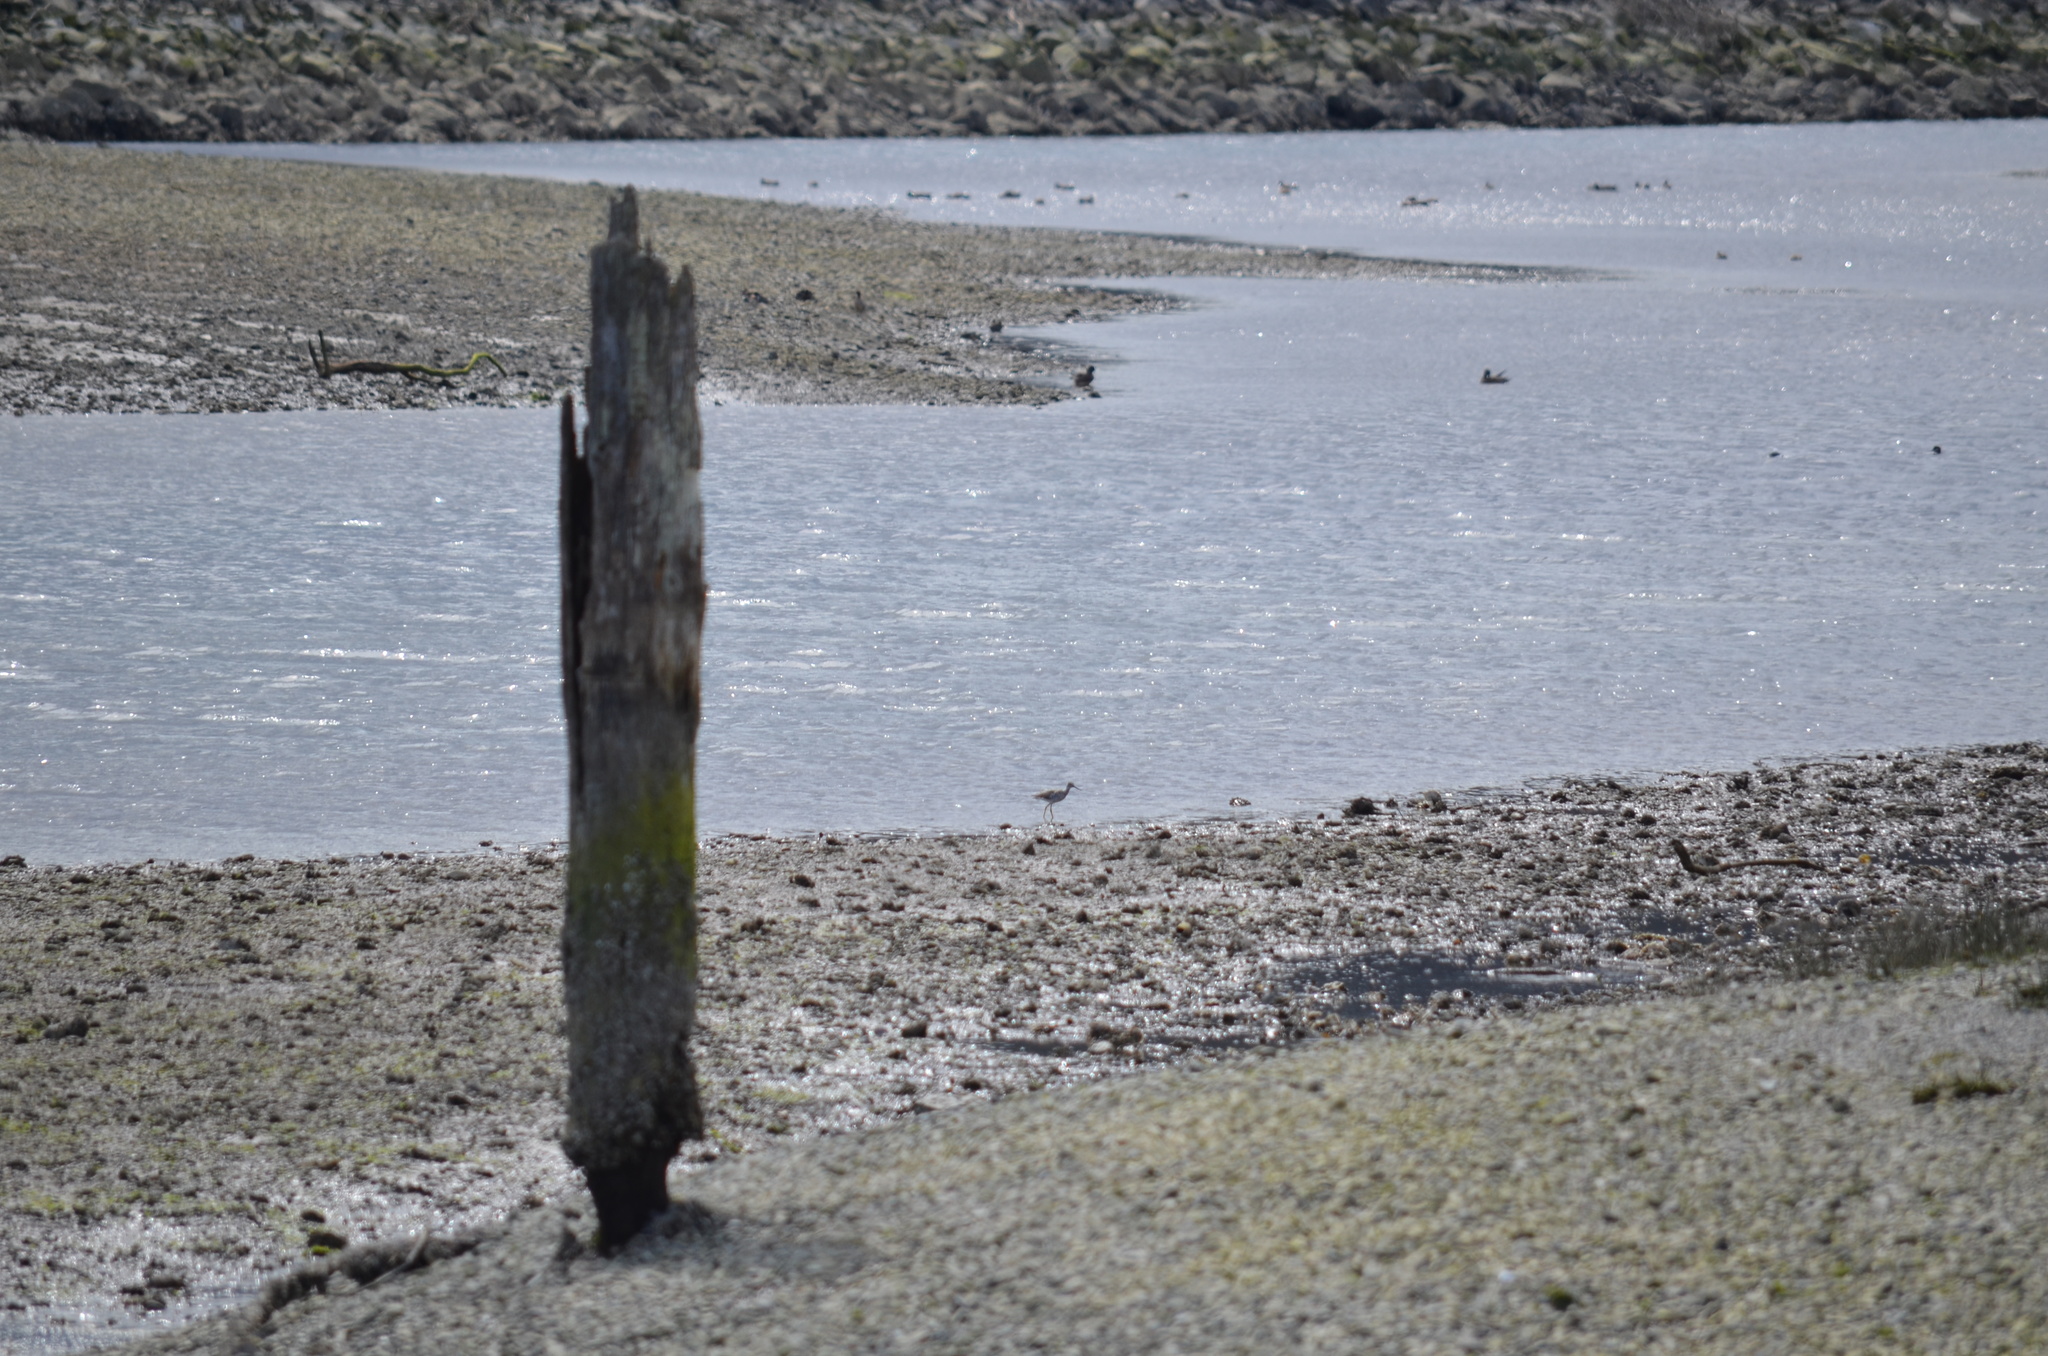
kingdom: Animalia
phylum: Chordata
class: Aves
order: Charadriiformes
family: Scolopacidae
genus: Tringa
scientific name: Tringa melanoleuca
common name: Greater yellowlegs
